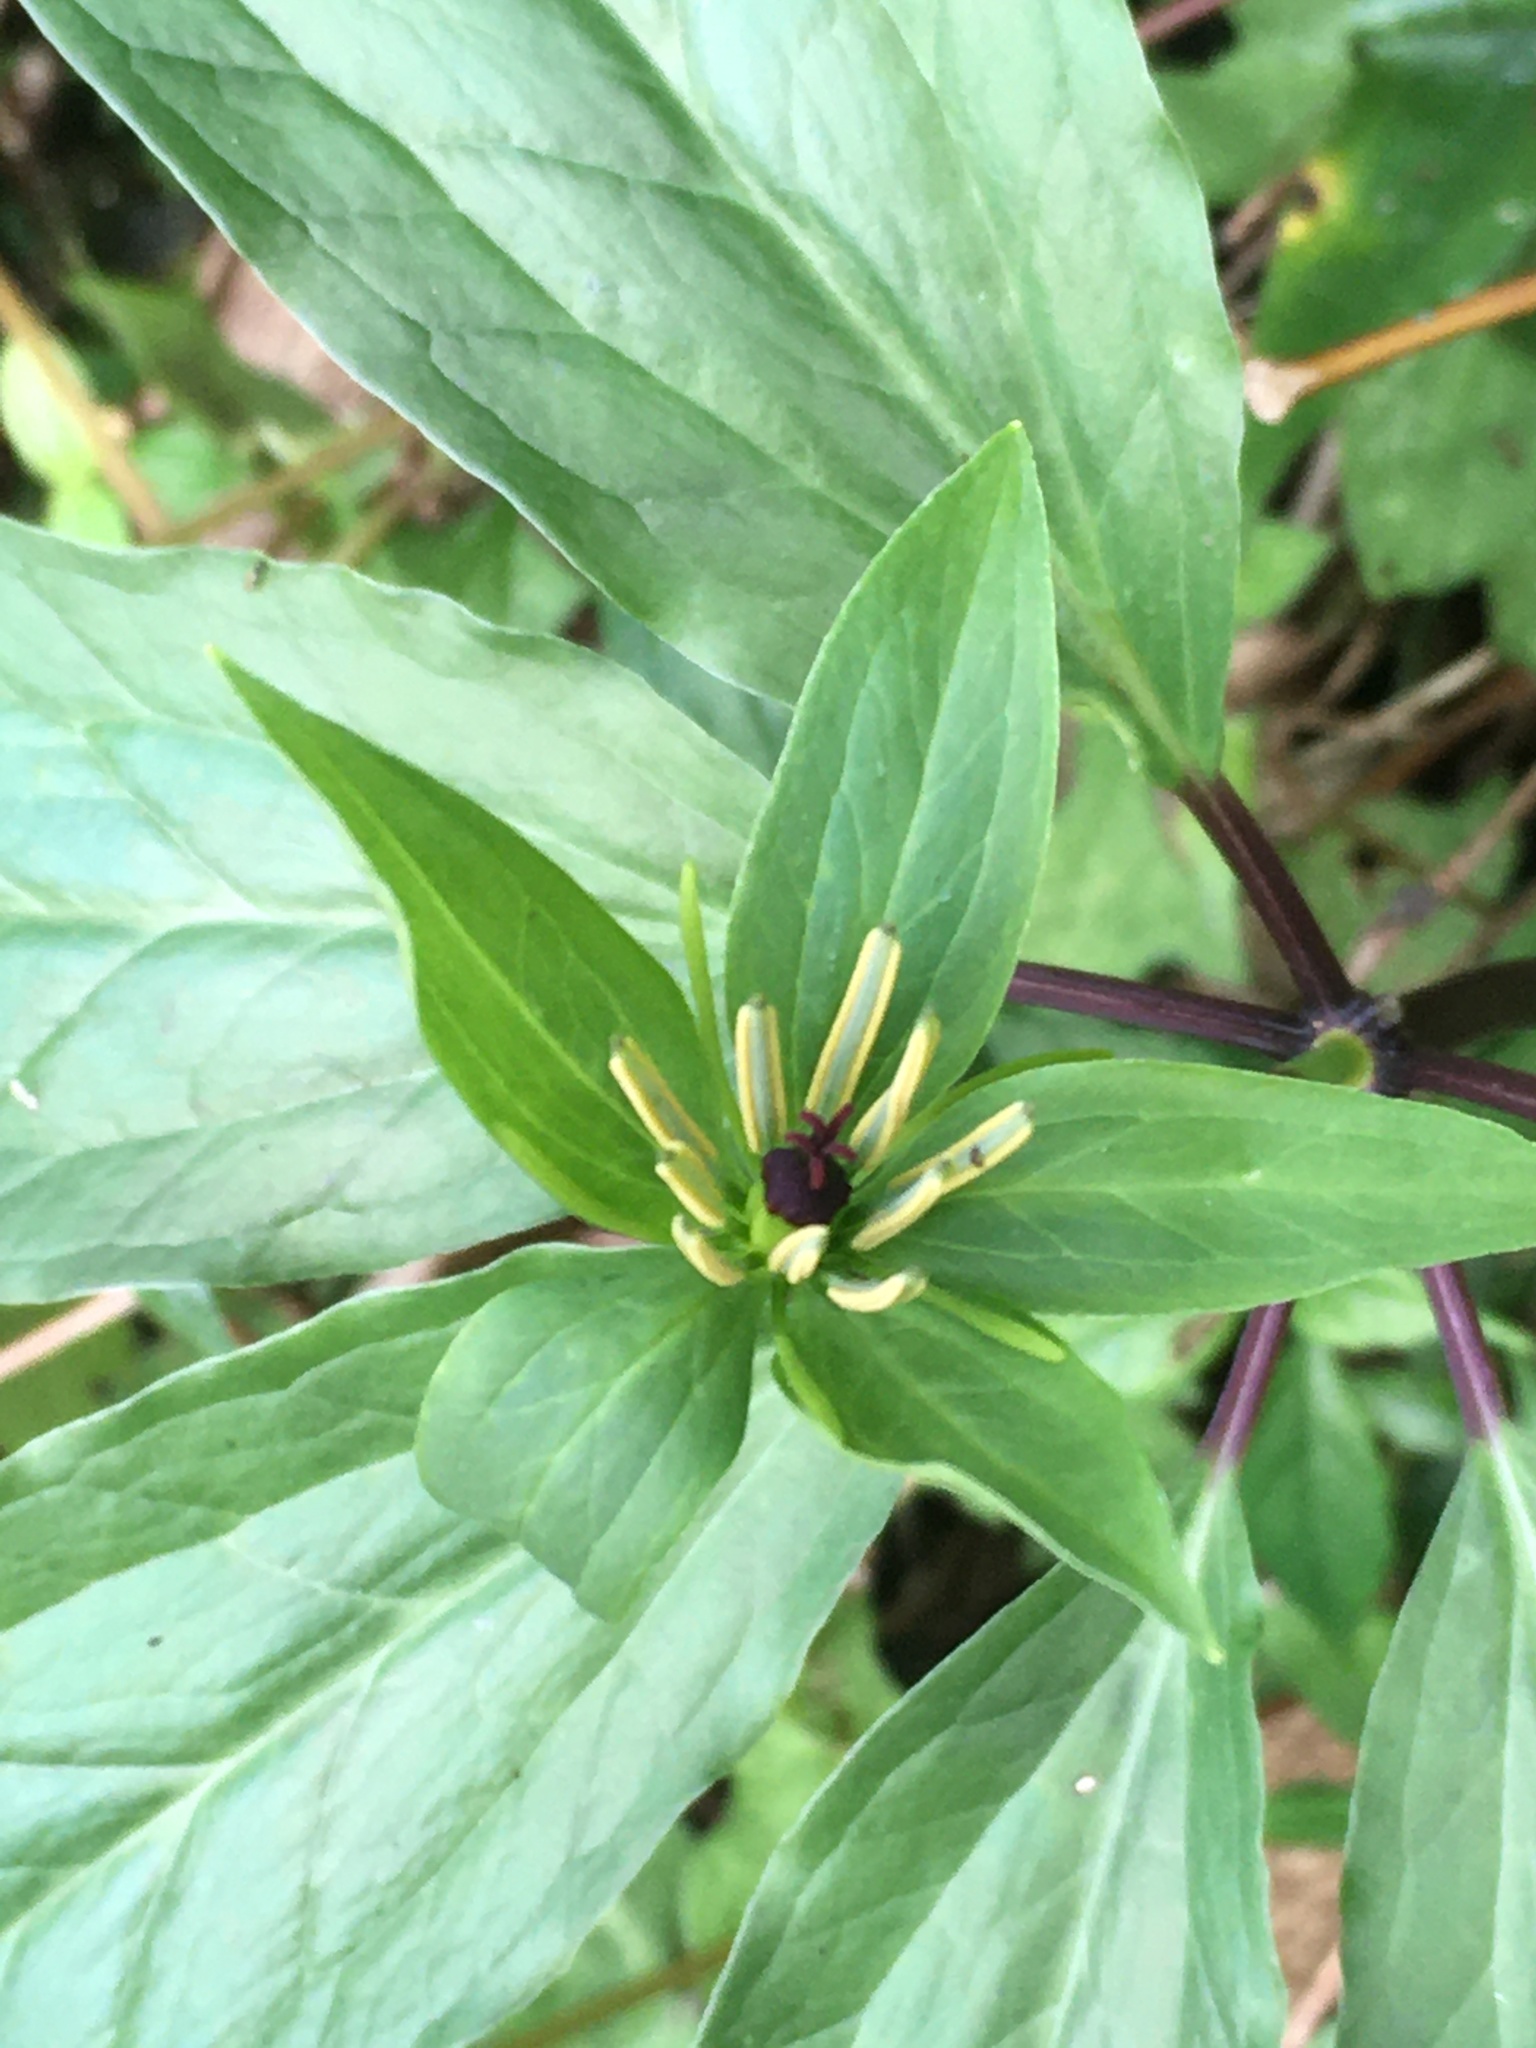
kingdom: Plantae
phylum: Tracheophyta
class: Liliopsida
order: Liliales
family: Melanthiaceae
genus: Paris
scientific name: Paris polyphylla
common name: Love apple
